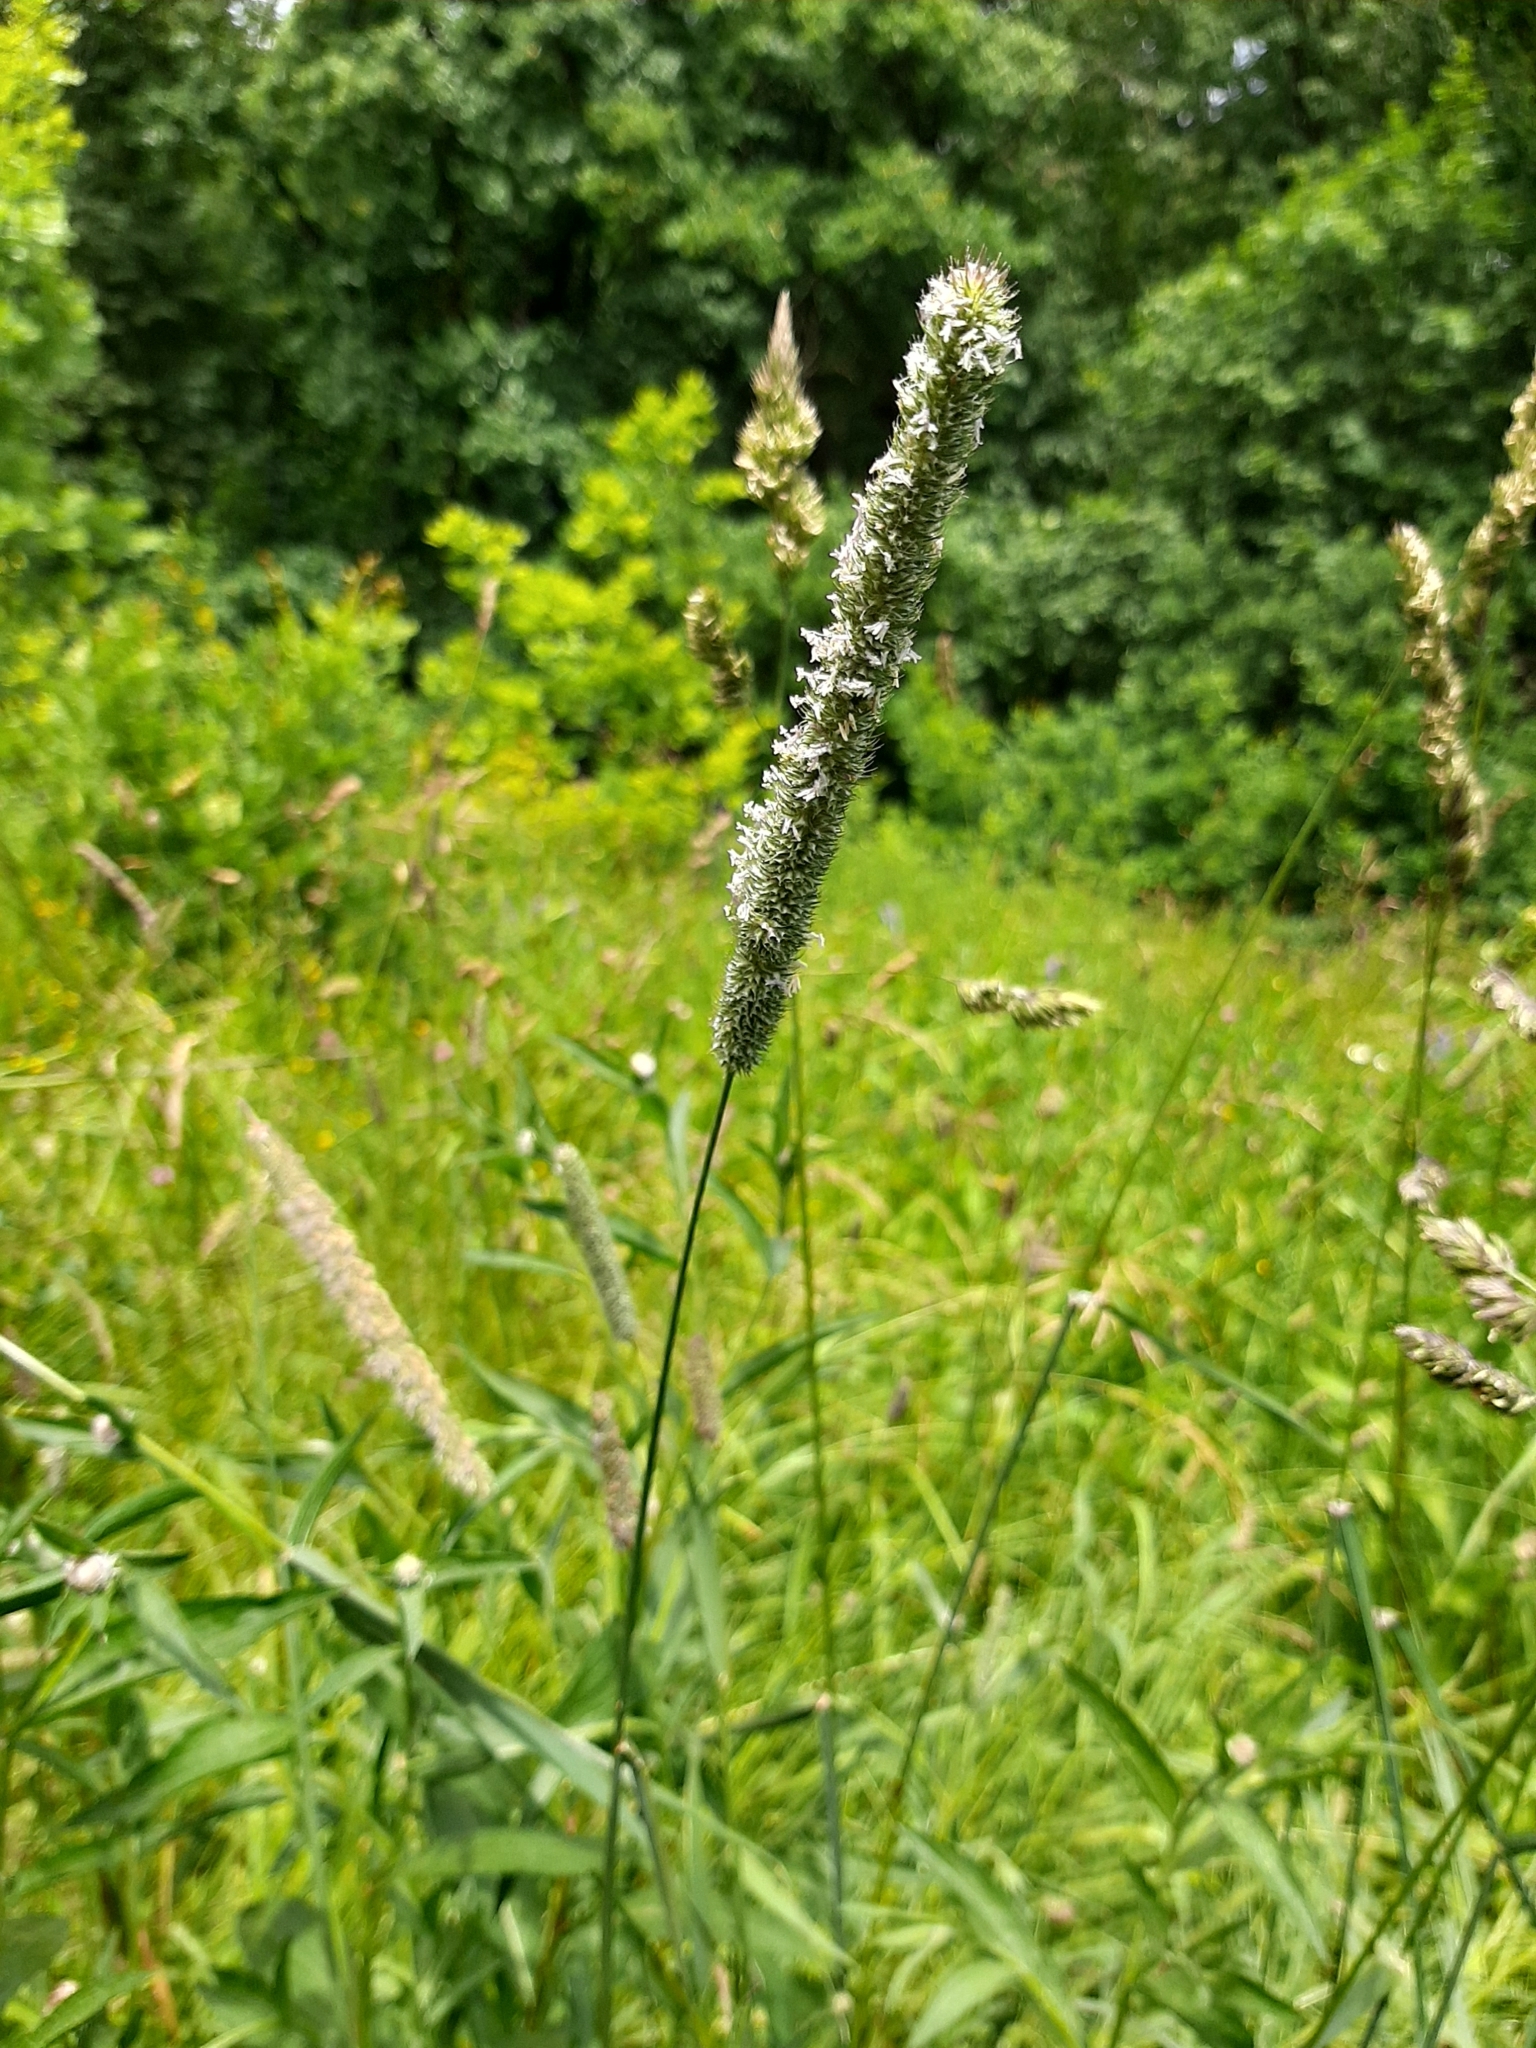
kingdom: Plantae
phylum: Tracheophyta
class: Liliopsida
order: Poales
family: Poaceae
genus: Phleum
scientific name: Phleum pratense
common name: Timothy grass
